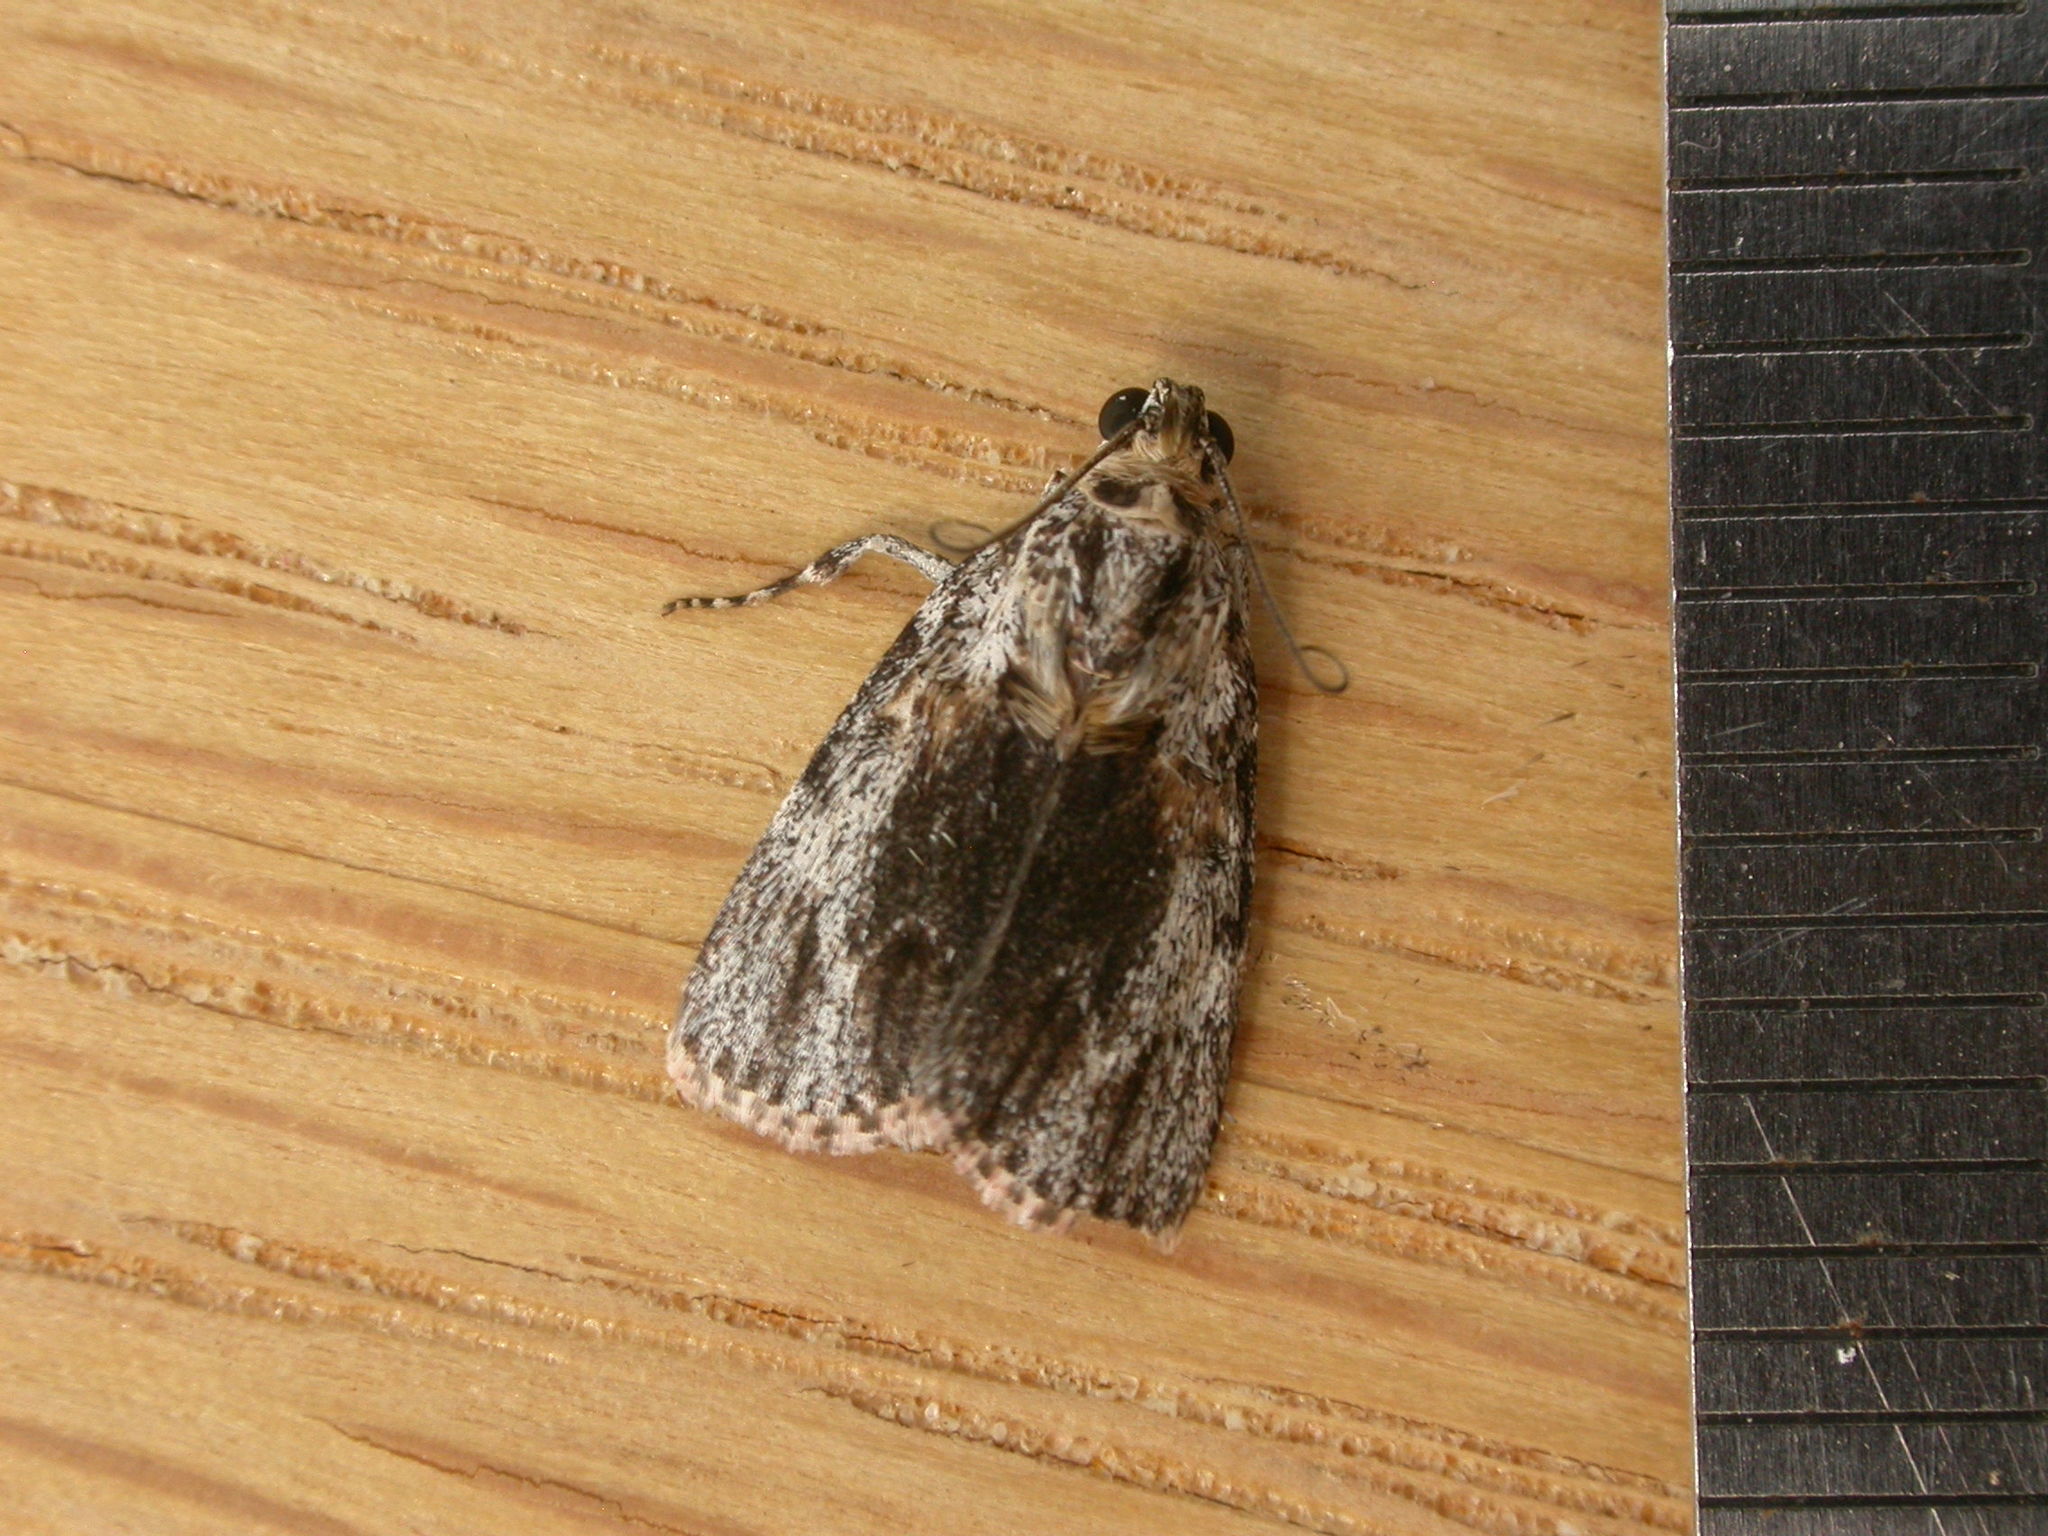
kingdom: Animalia
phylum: Arthropoda
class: Insecta
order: Lepidoptera
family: Pyralidae
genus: Spectrotrota
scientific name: Spectrotrota fimbrialis
